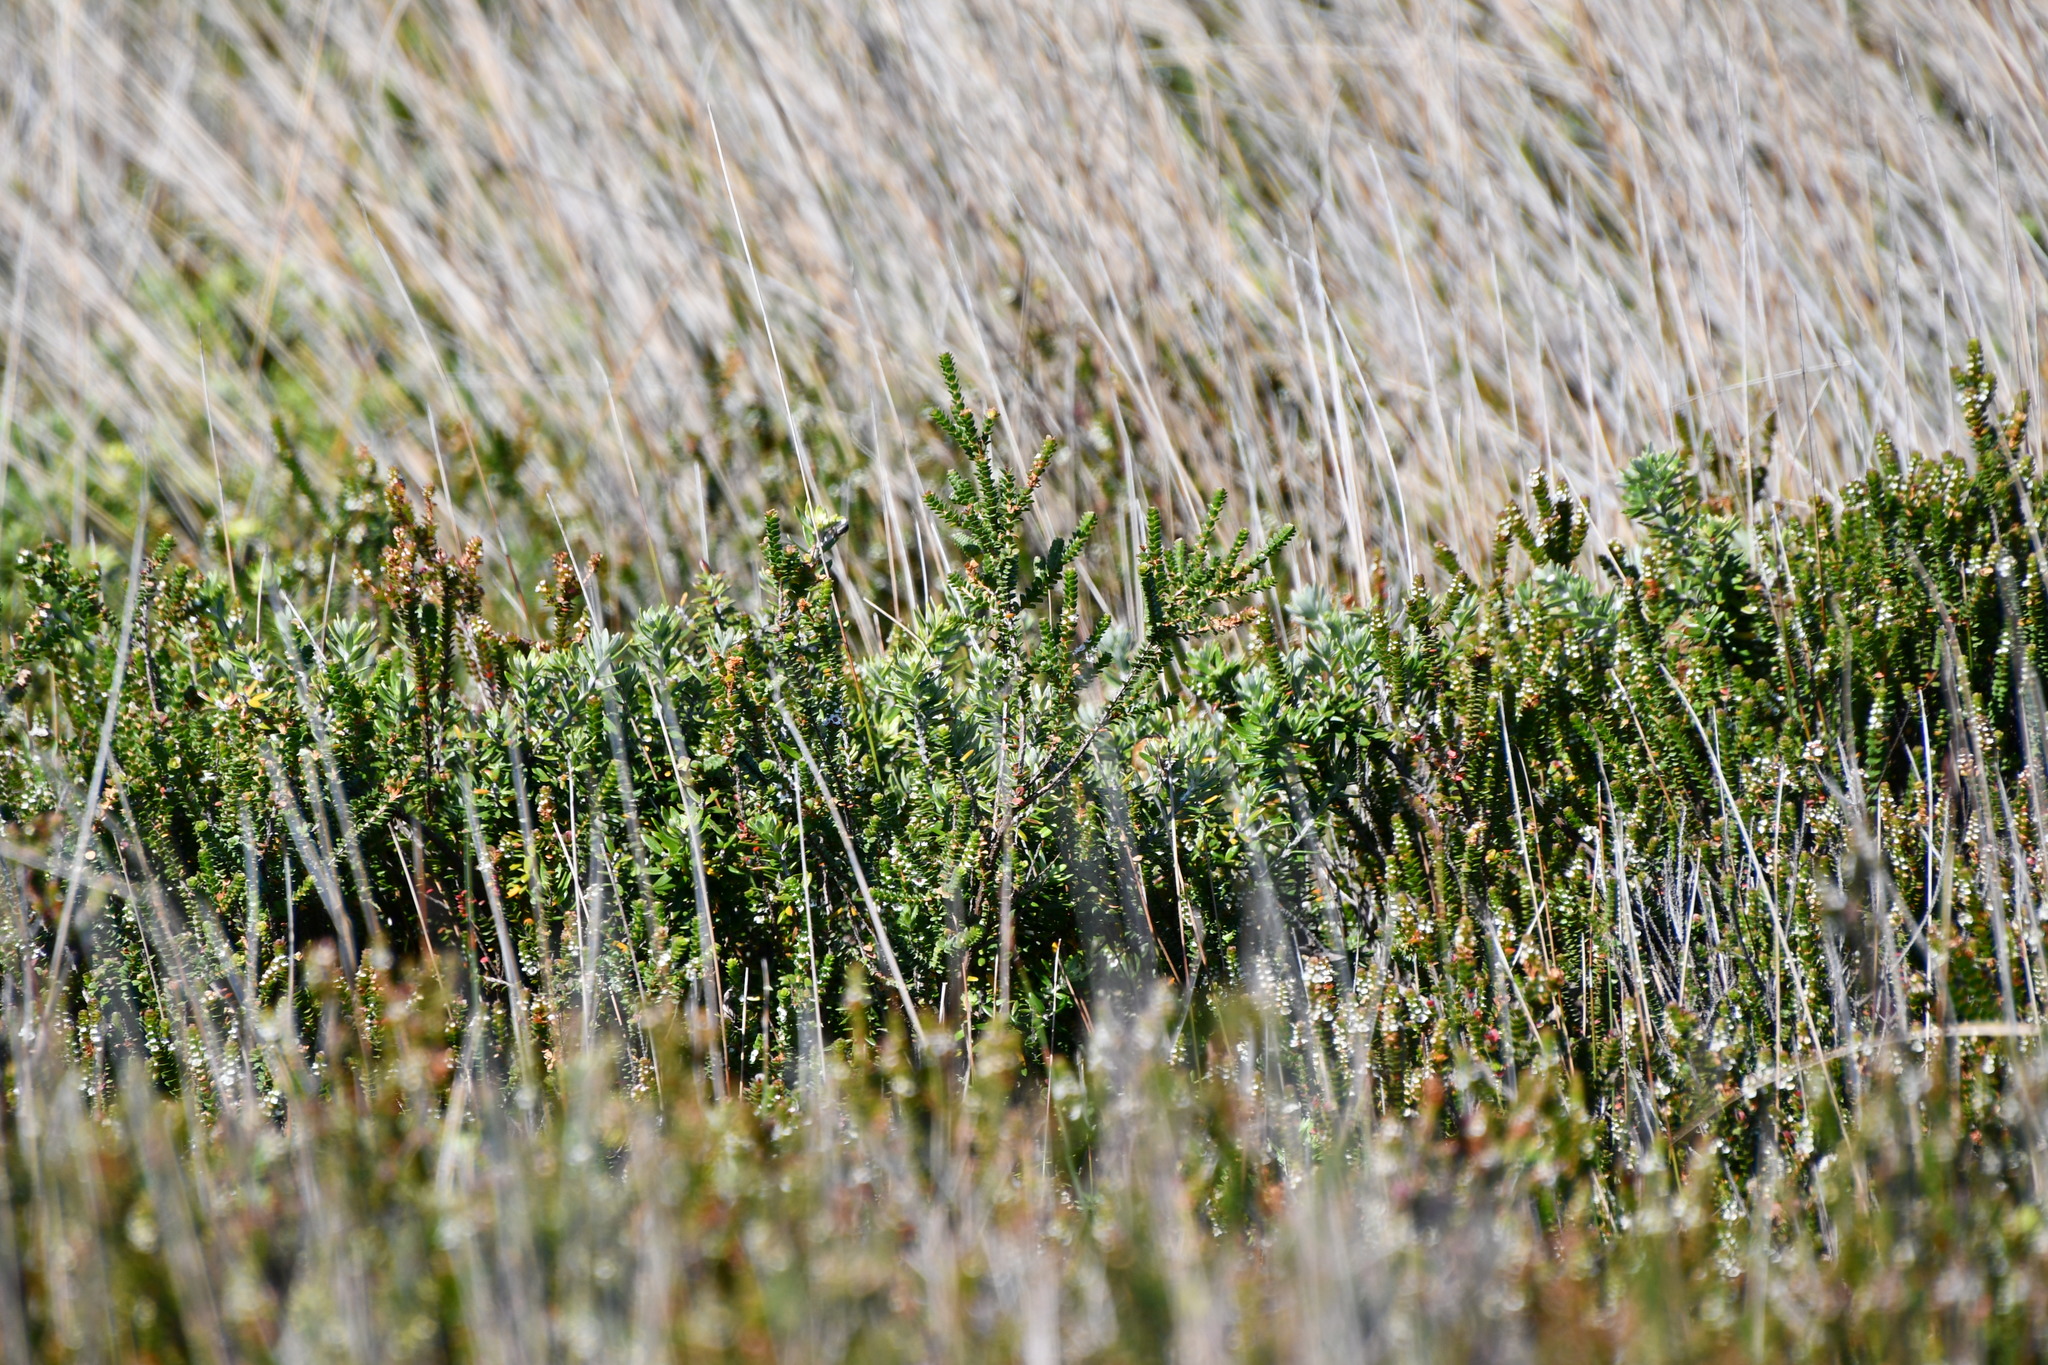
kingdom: Animalia
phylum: Chordata
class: Aves
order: Passeriformes
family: Cisticolidae
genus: Cisticola
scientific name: Cisticola exilis
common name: Golden-headed cisticola
